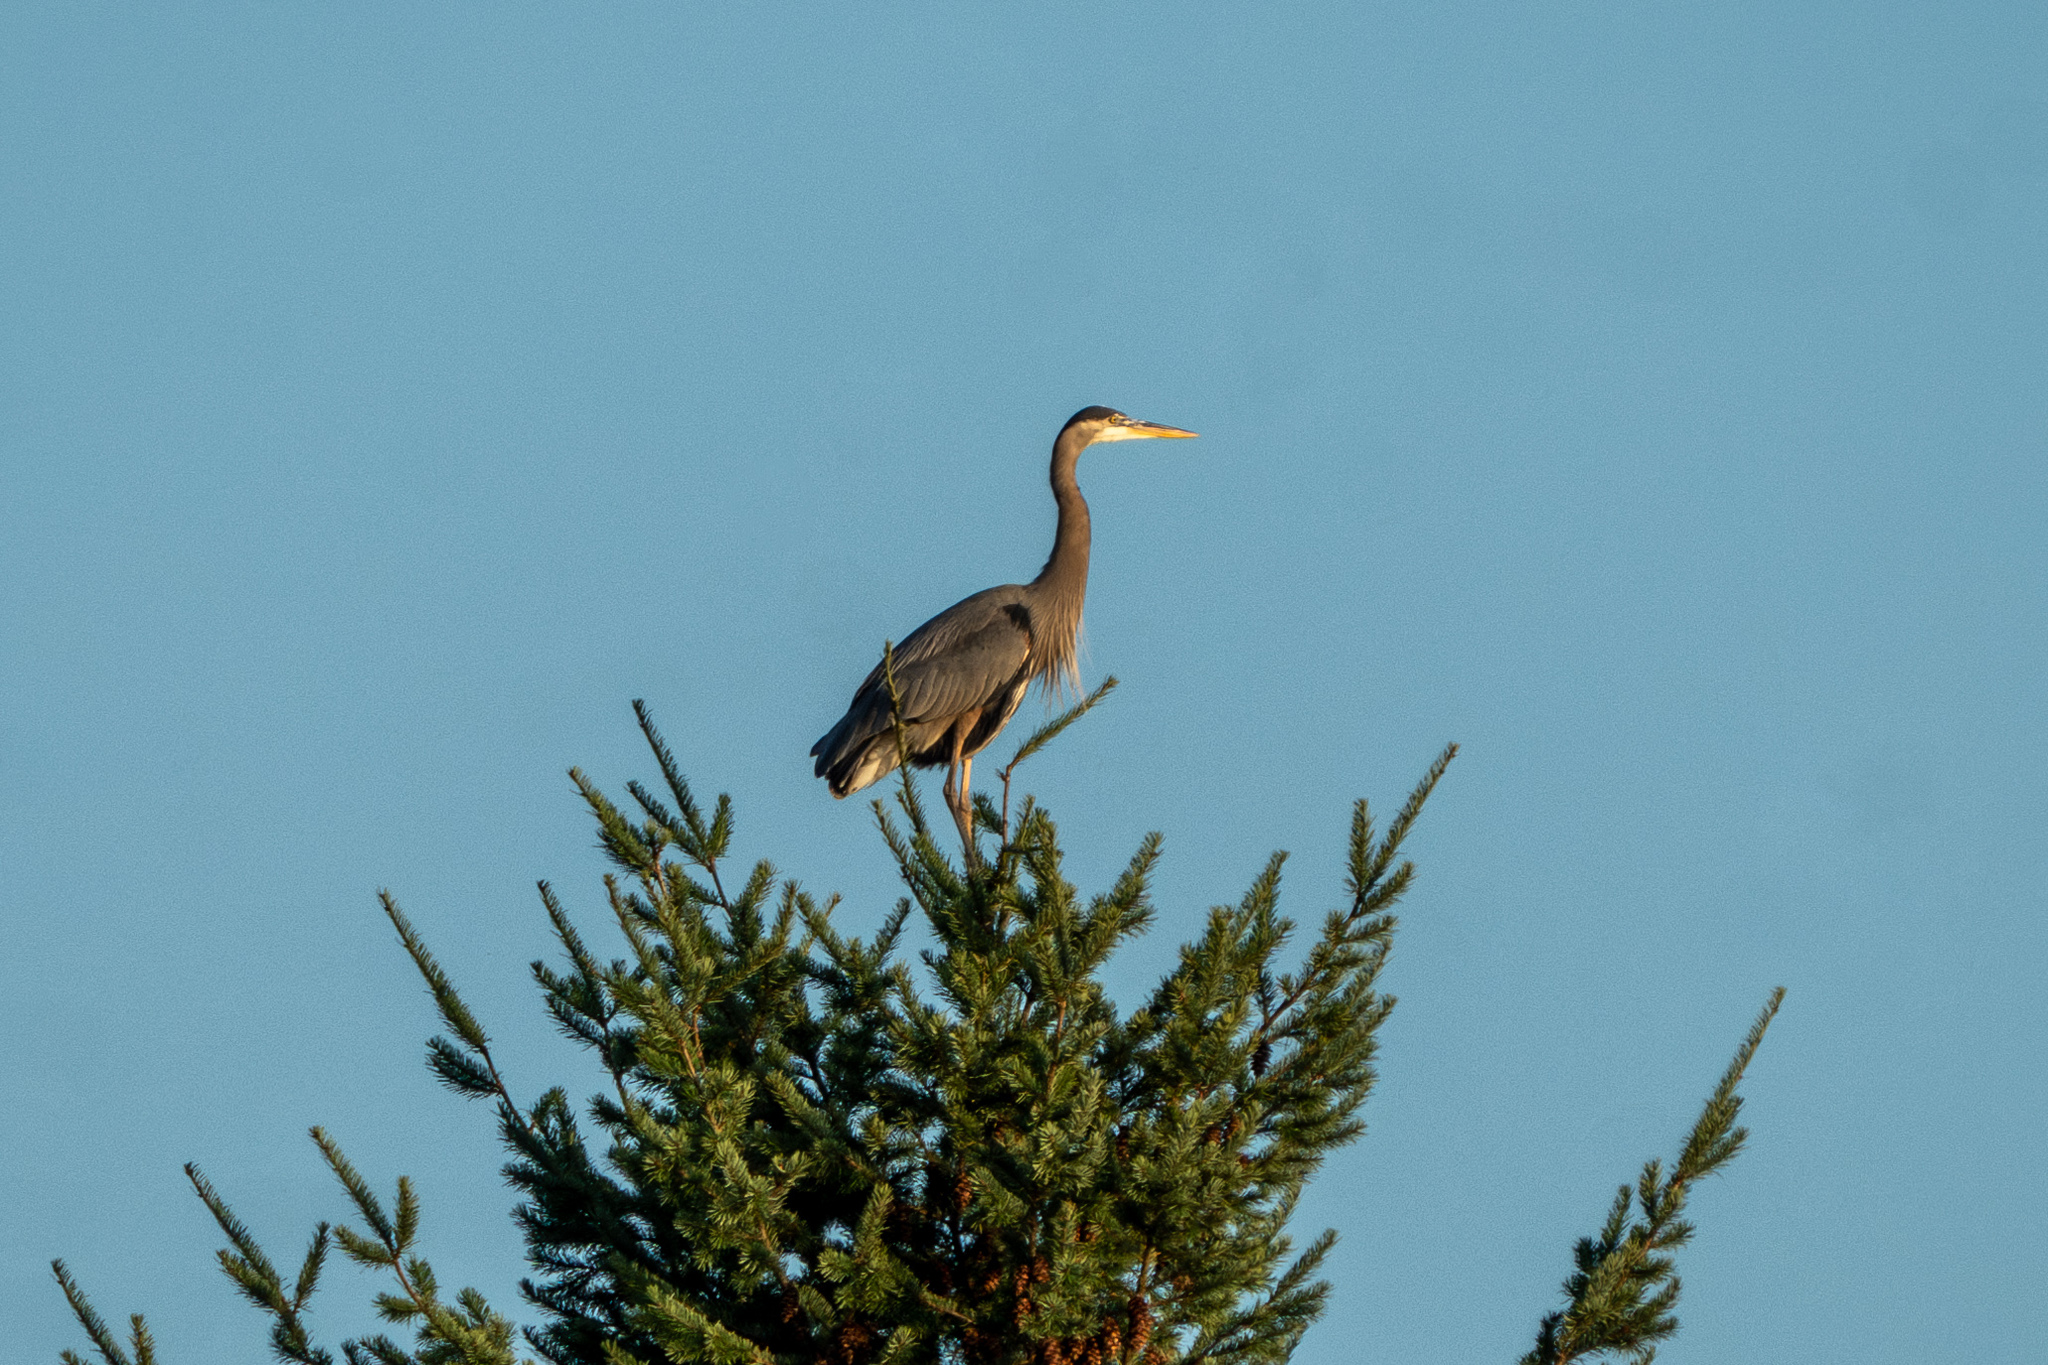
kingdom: Animalia
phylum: Chordata
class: Aves
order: Pelecaniformes
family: Ardeidae
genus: Ardea
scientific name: Ardea herodias
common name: Great blue heron
